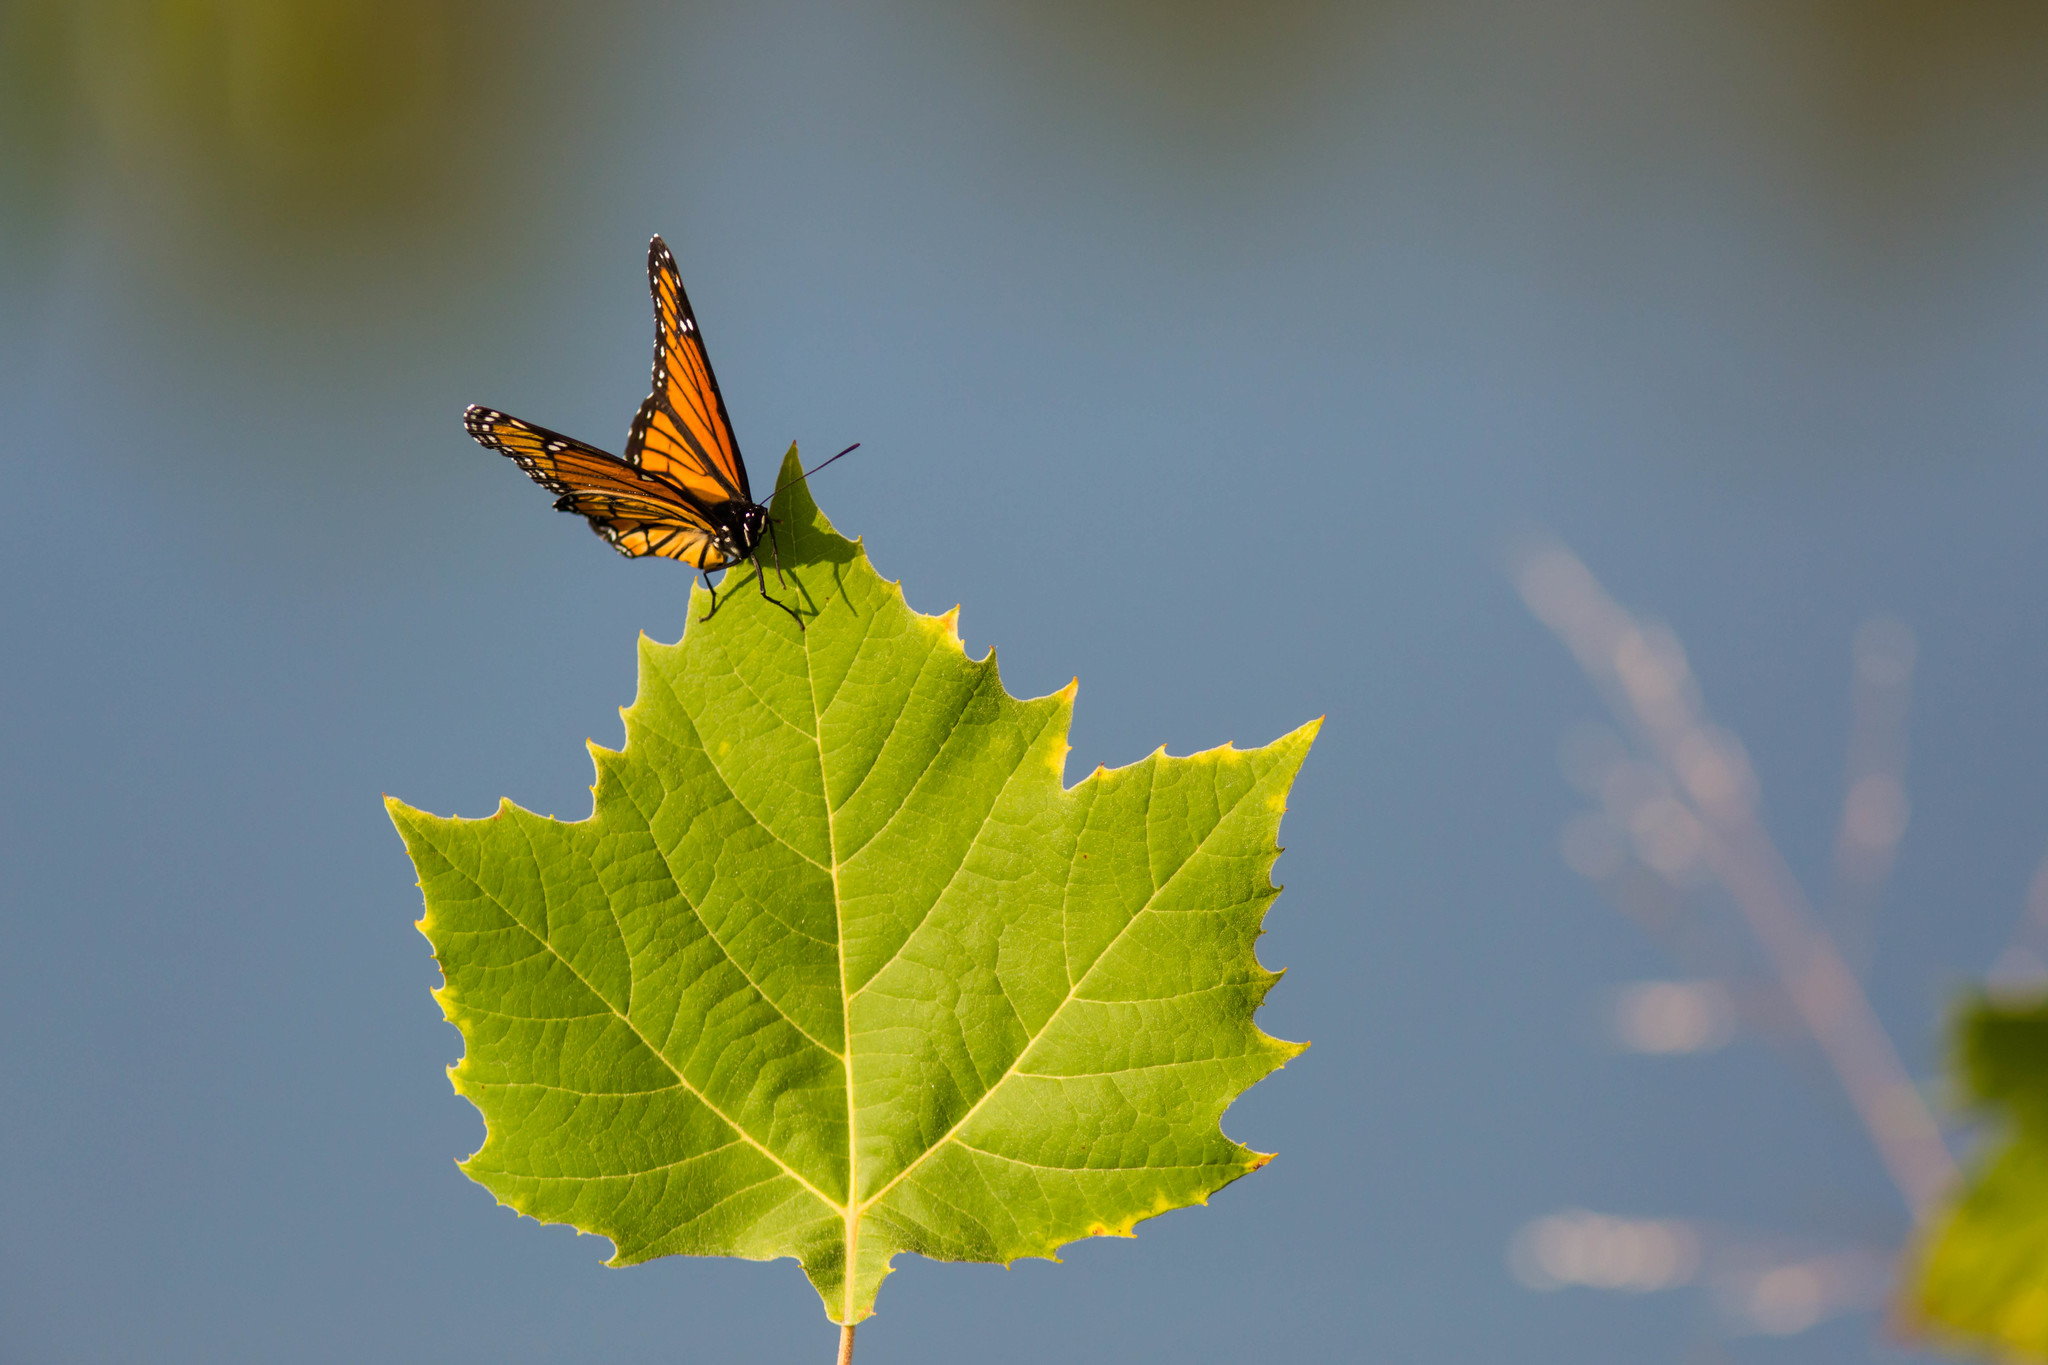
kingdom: Animalia
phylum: Arthropoda
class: Insecta
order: Lepidoptera
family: Nymphalidae
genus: Limenitis
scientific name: Limenitis archippus
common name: Viceroy
